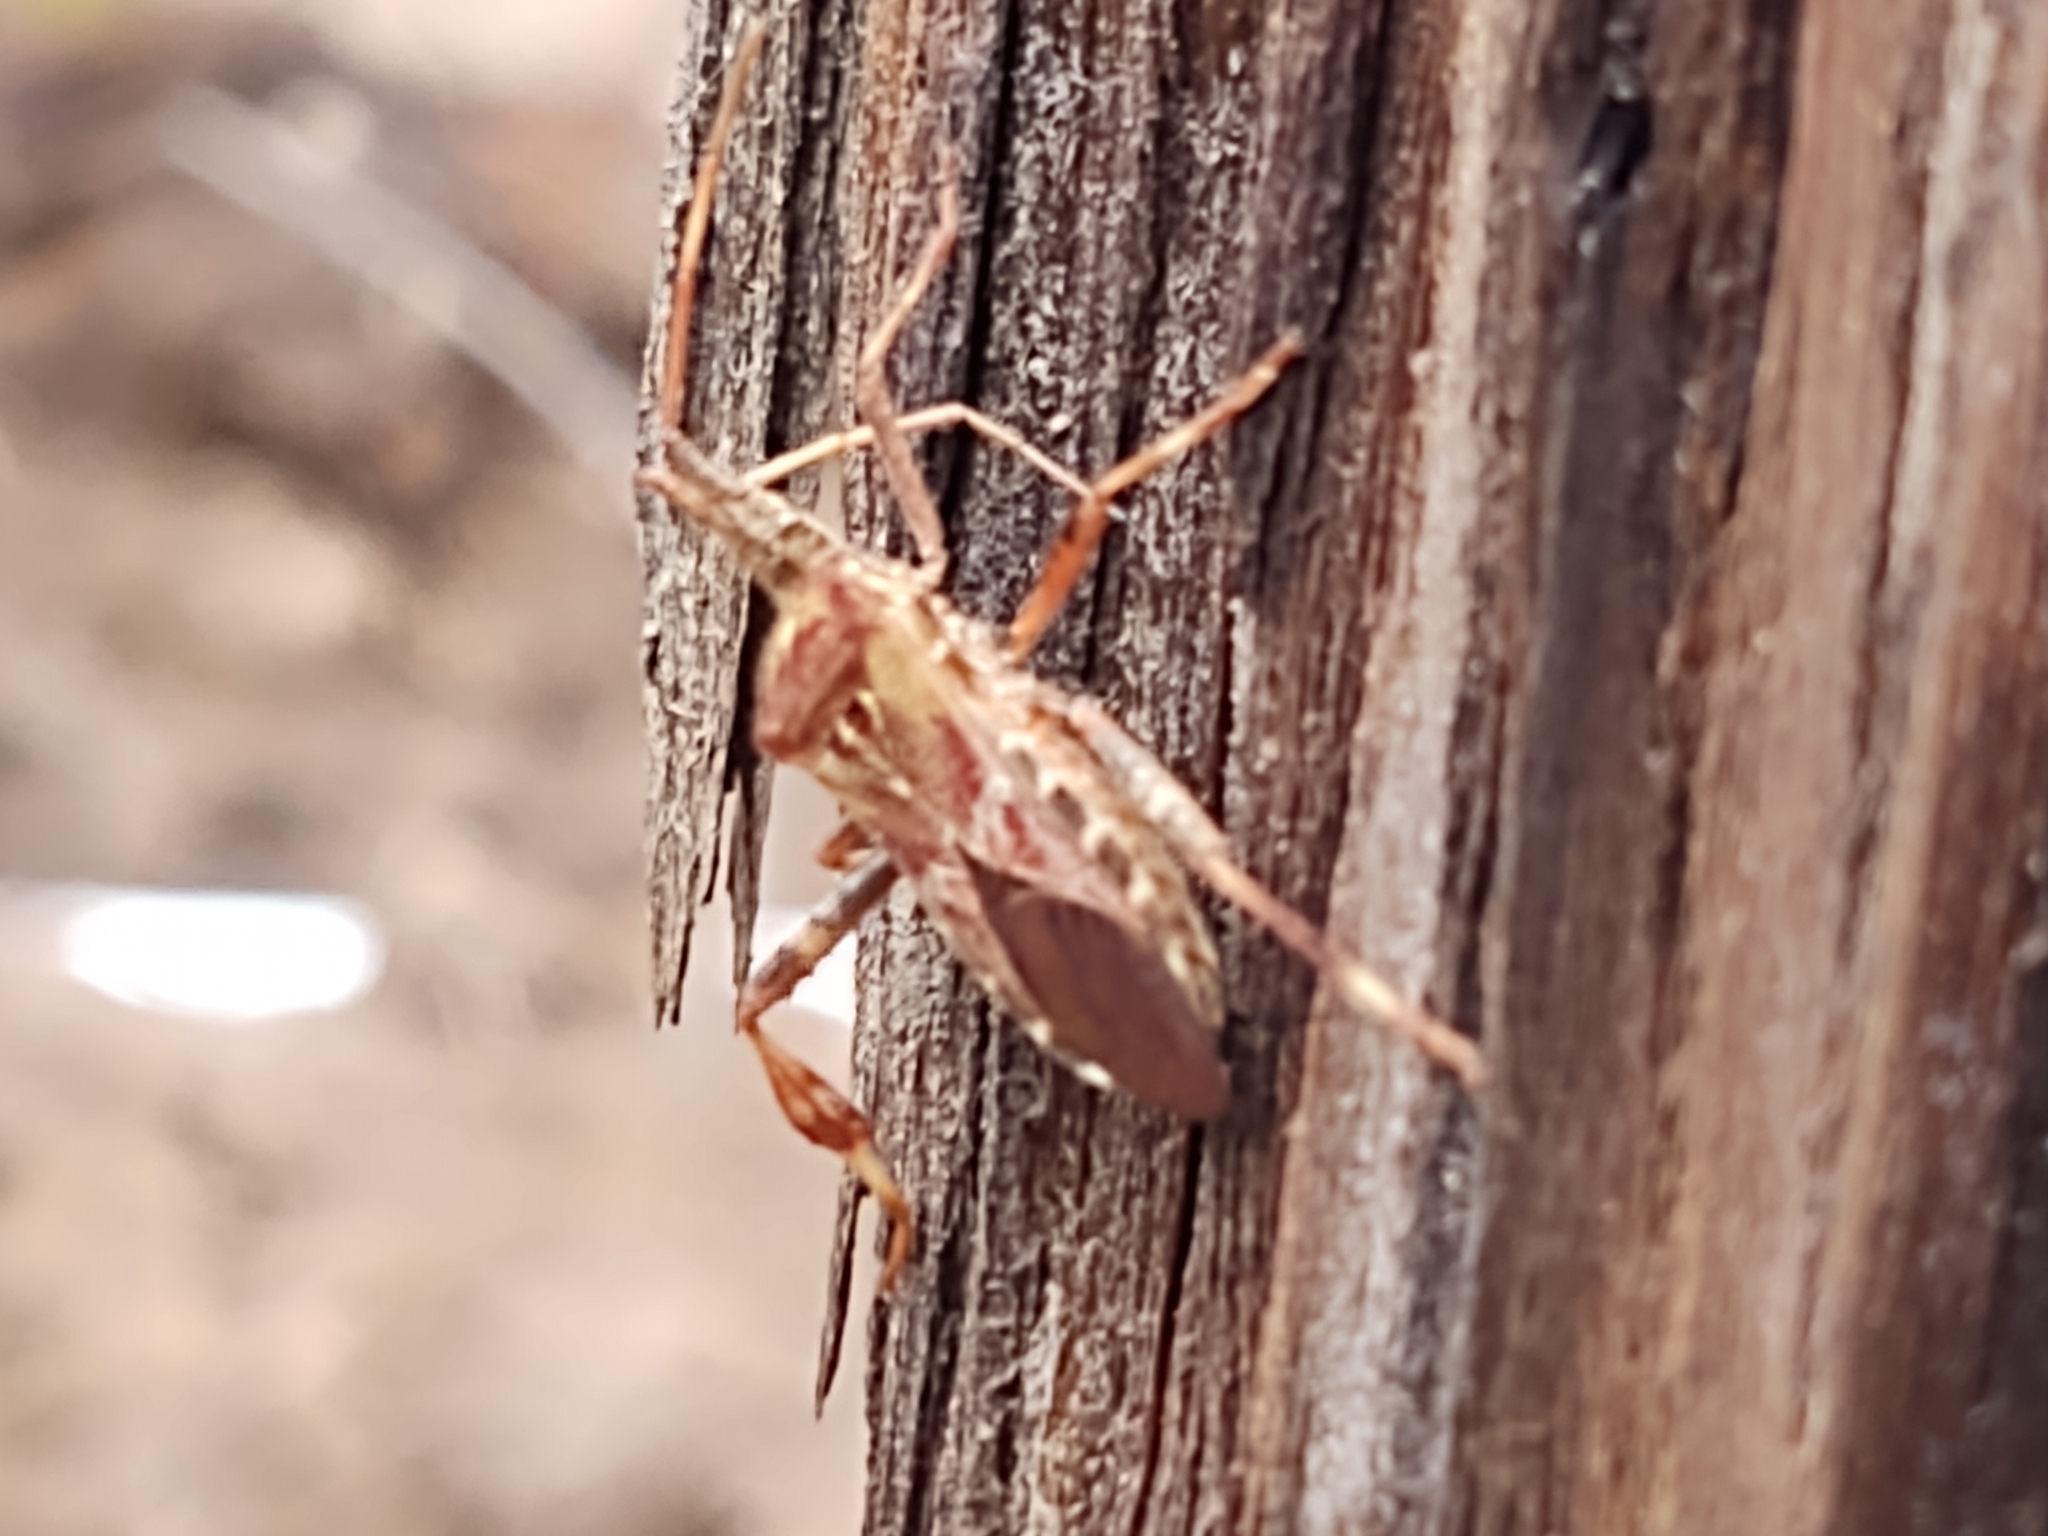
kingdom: Animalia
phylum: Arthropoda
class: Insecta
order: Hemiptera
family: Coreidae
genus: Leptoglossus
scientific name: Leptoglossus occidentalis
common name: Western conifer-seed bug
